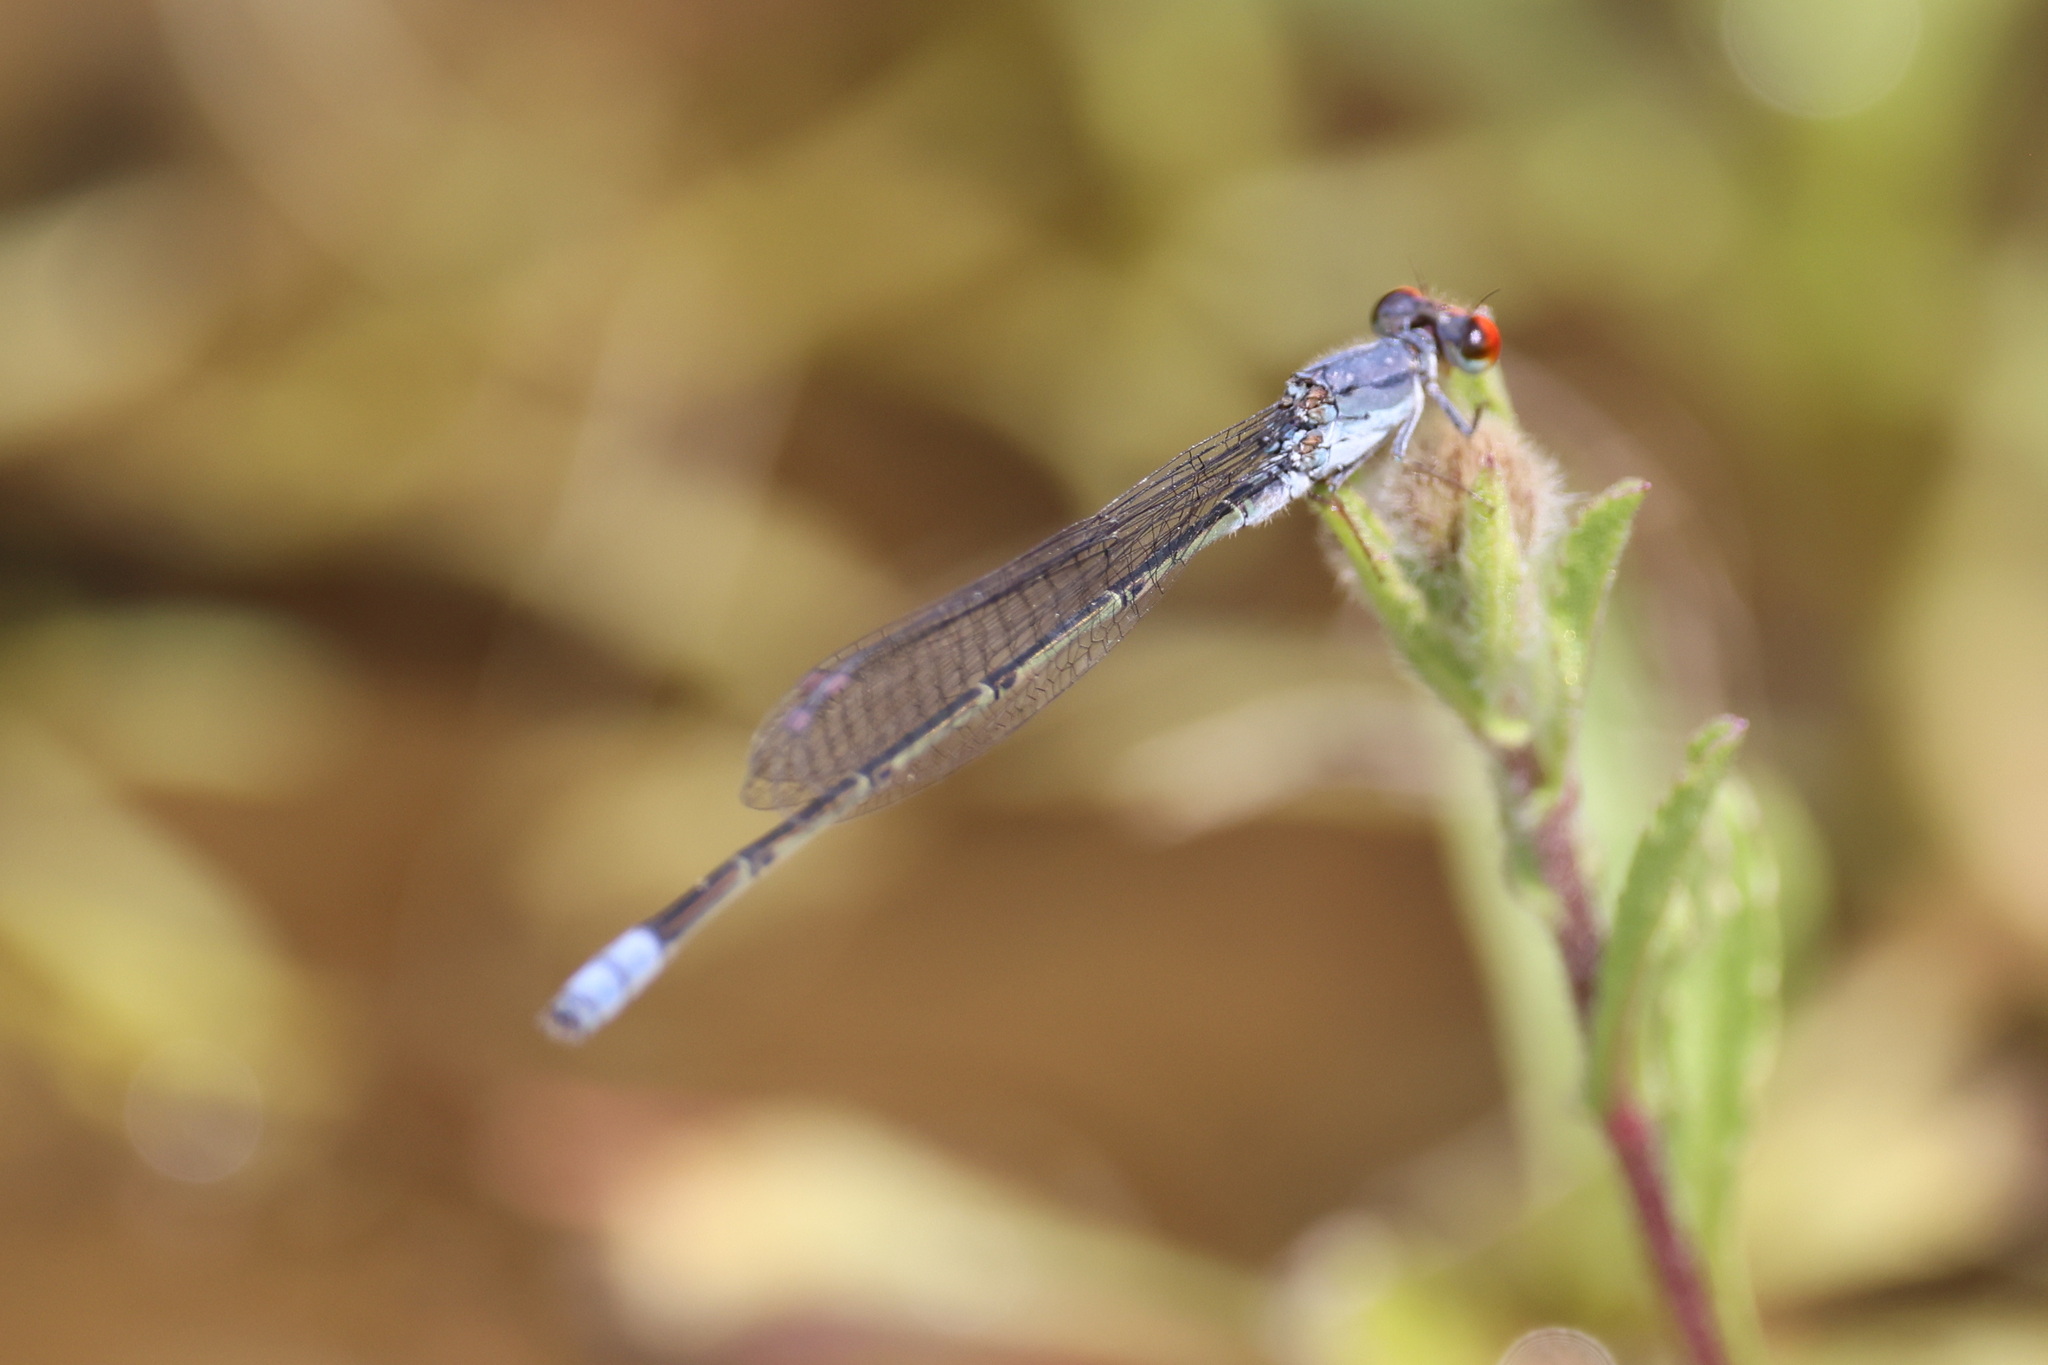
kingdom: Animalia
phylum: Arthropoda
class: Insecta
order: Odonata
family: Coenagrionidae
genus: Pseudagrion
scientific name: Pseudagrion sublacteum
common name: Cherry-eye sprite
